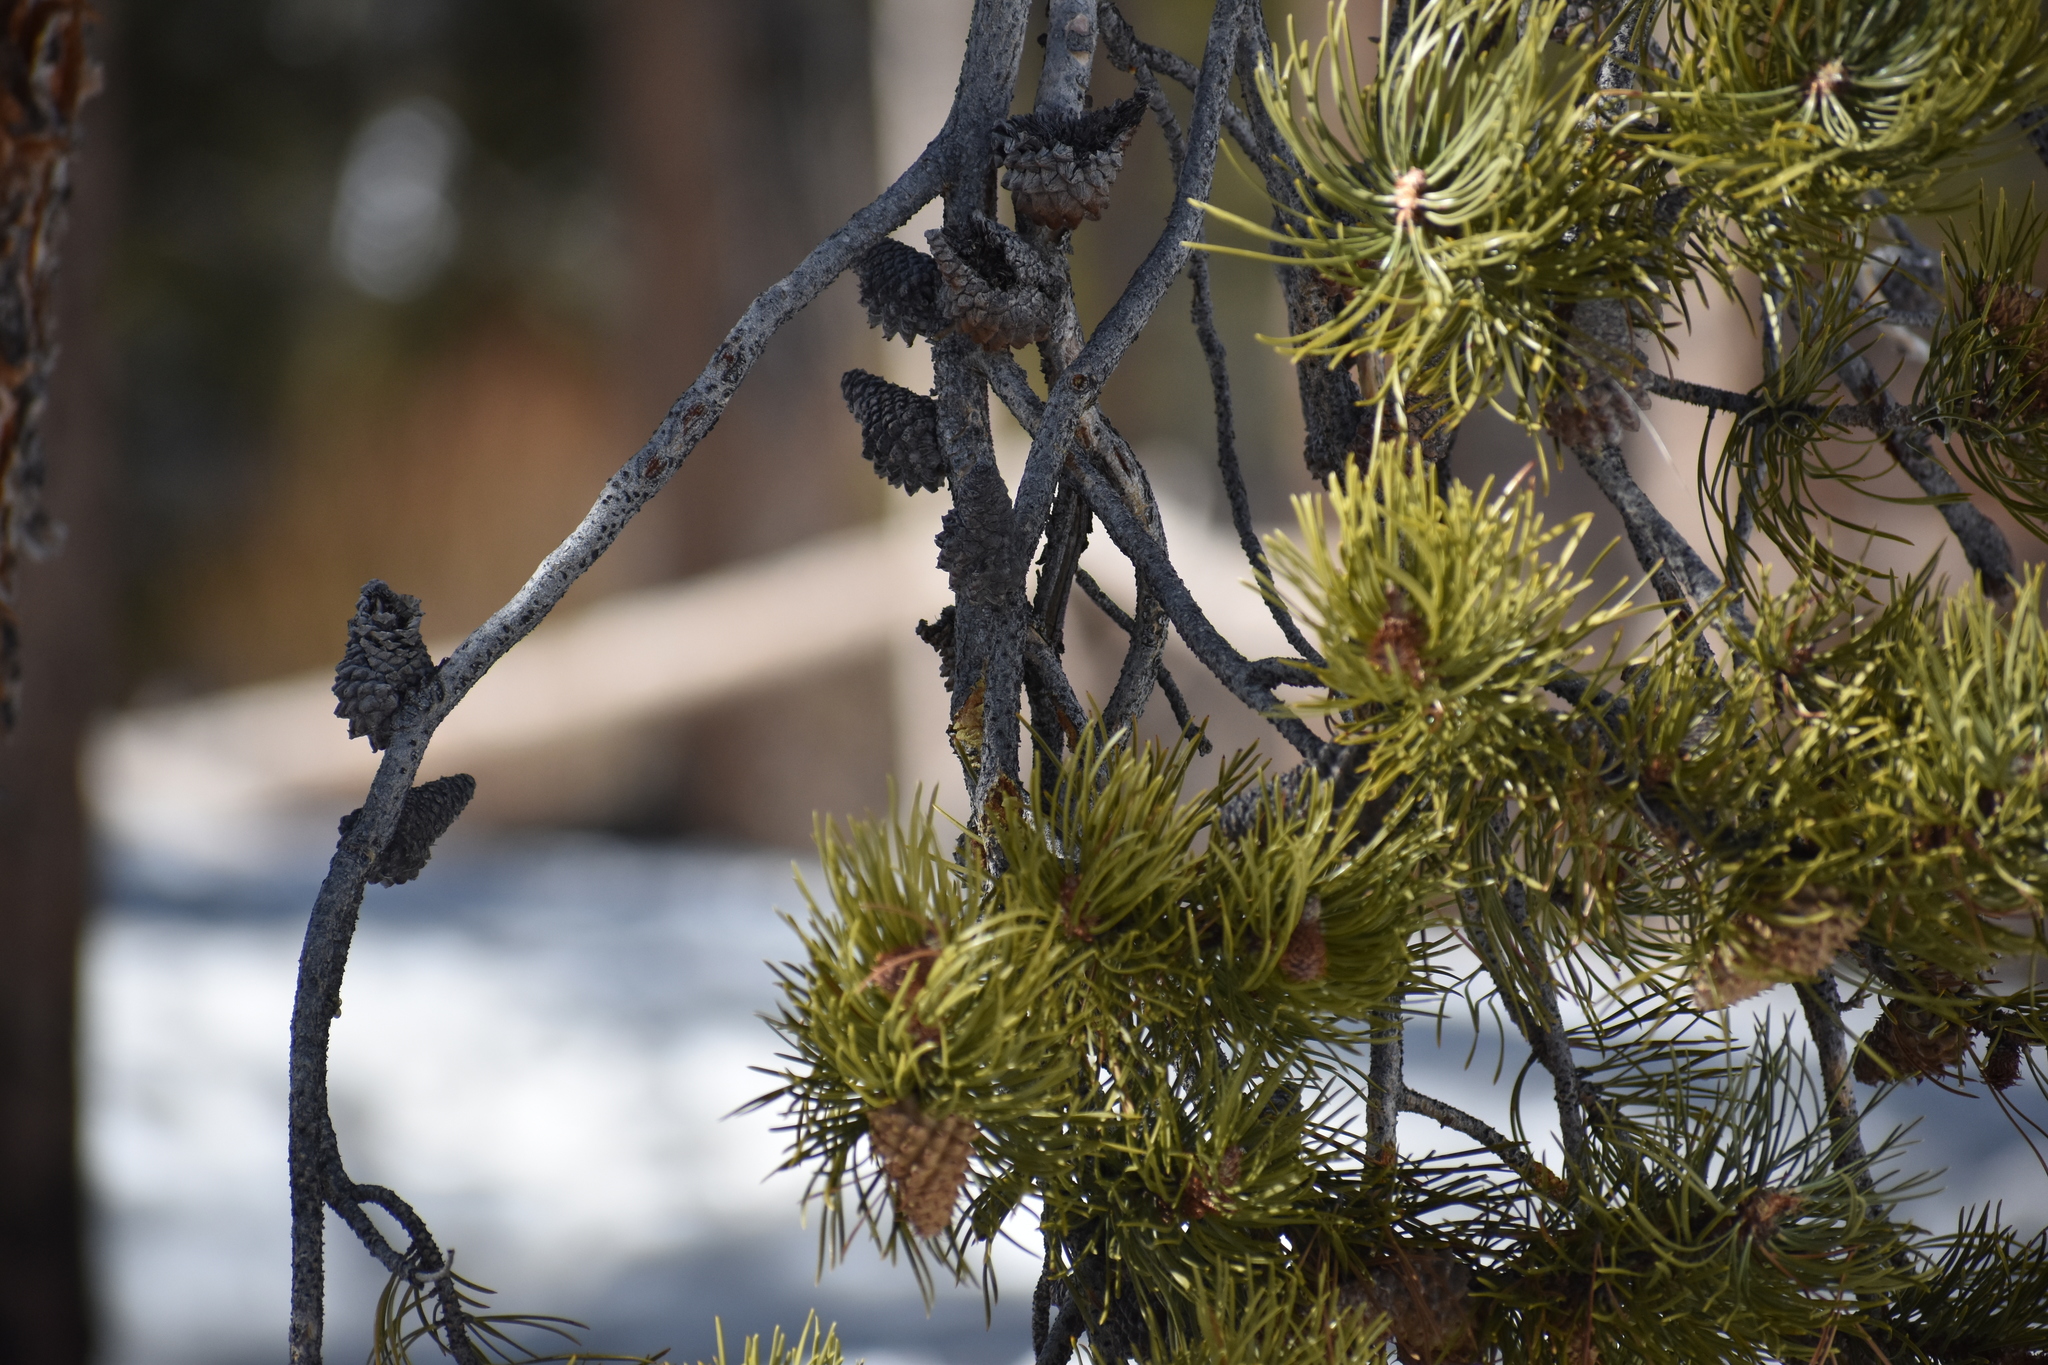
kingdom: Plantae
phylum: Tracheophyta
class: Pinopsida
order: Pinales
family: Pinaceae
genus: Pinus
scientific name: Pinus contorta
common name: Lodgepole pine
